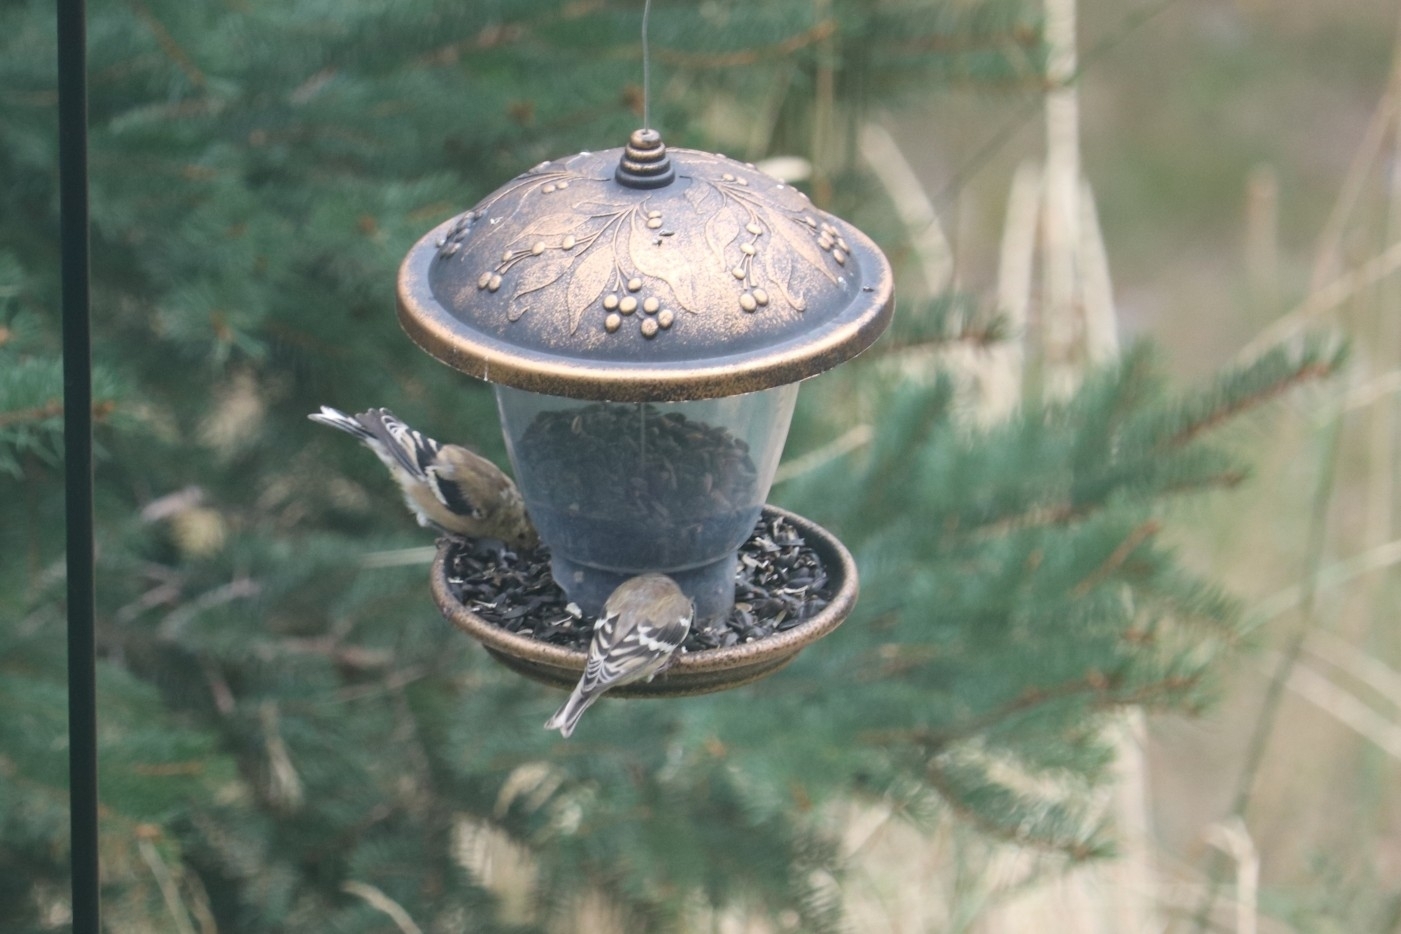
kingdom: Animalia
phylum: Chordata
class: Aves
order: Passeriformes
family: Fringillidae
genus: Spinus
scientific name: Spinus tristis
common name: American goldfinch
